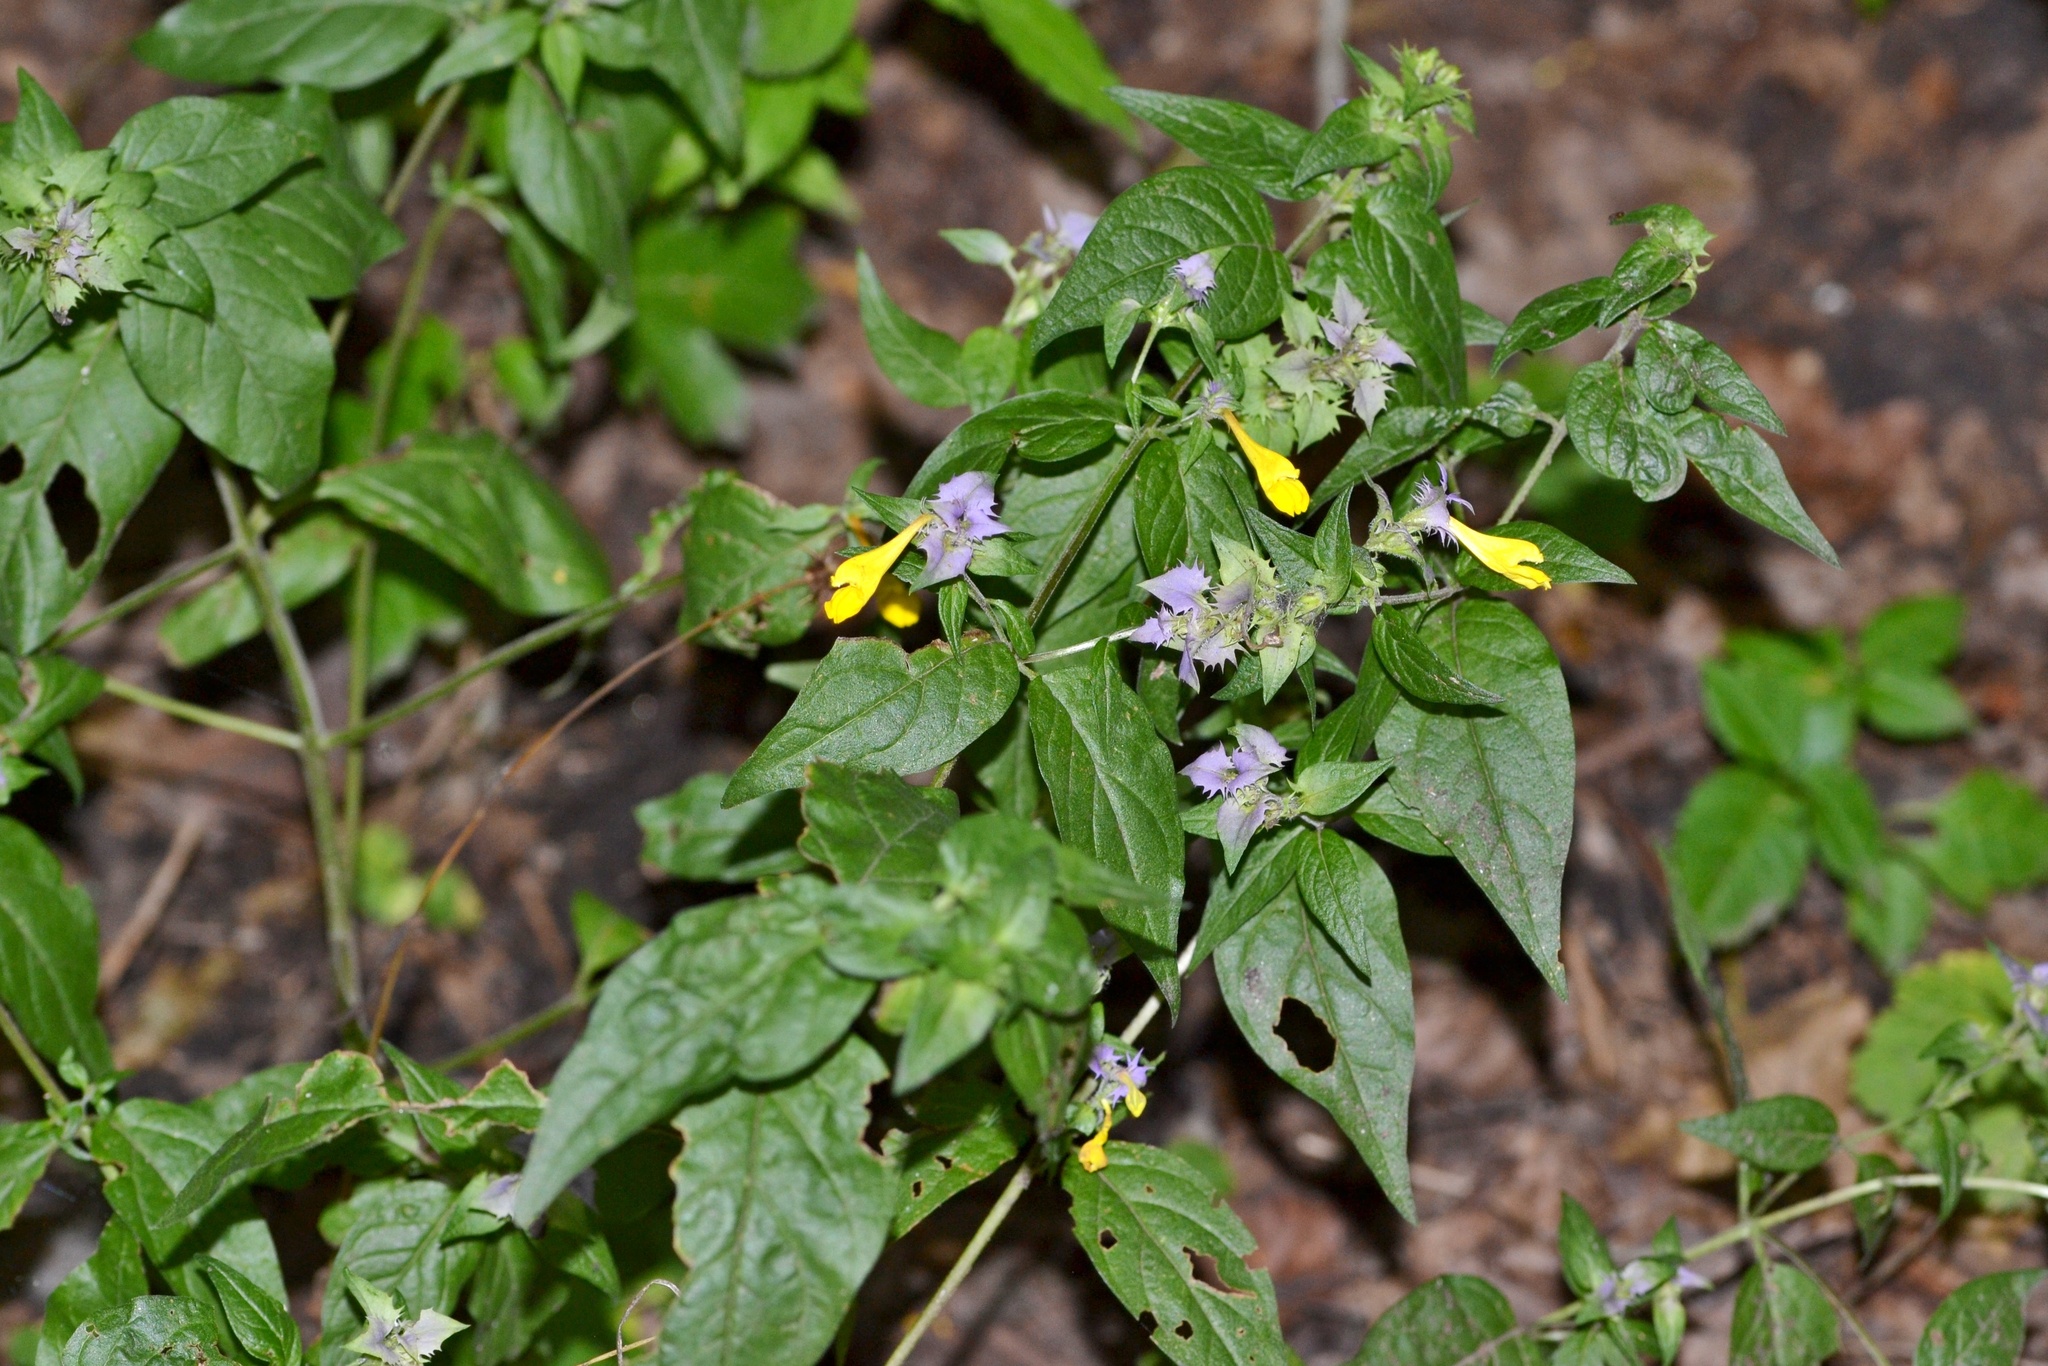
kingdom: Plantae
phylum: Tracheophyta
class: Magnoliopsida
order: Lamiales
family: Orobanchaceae
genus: Melampyrum
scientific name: Melampyrum nemorosum
